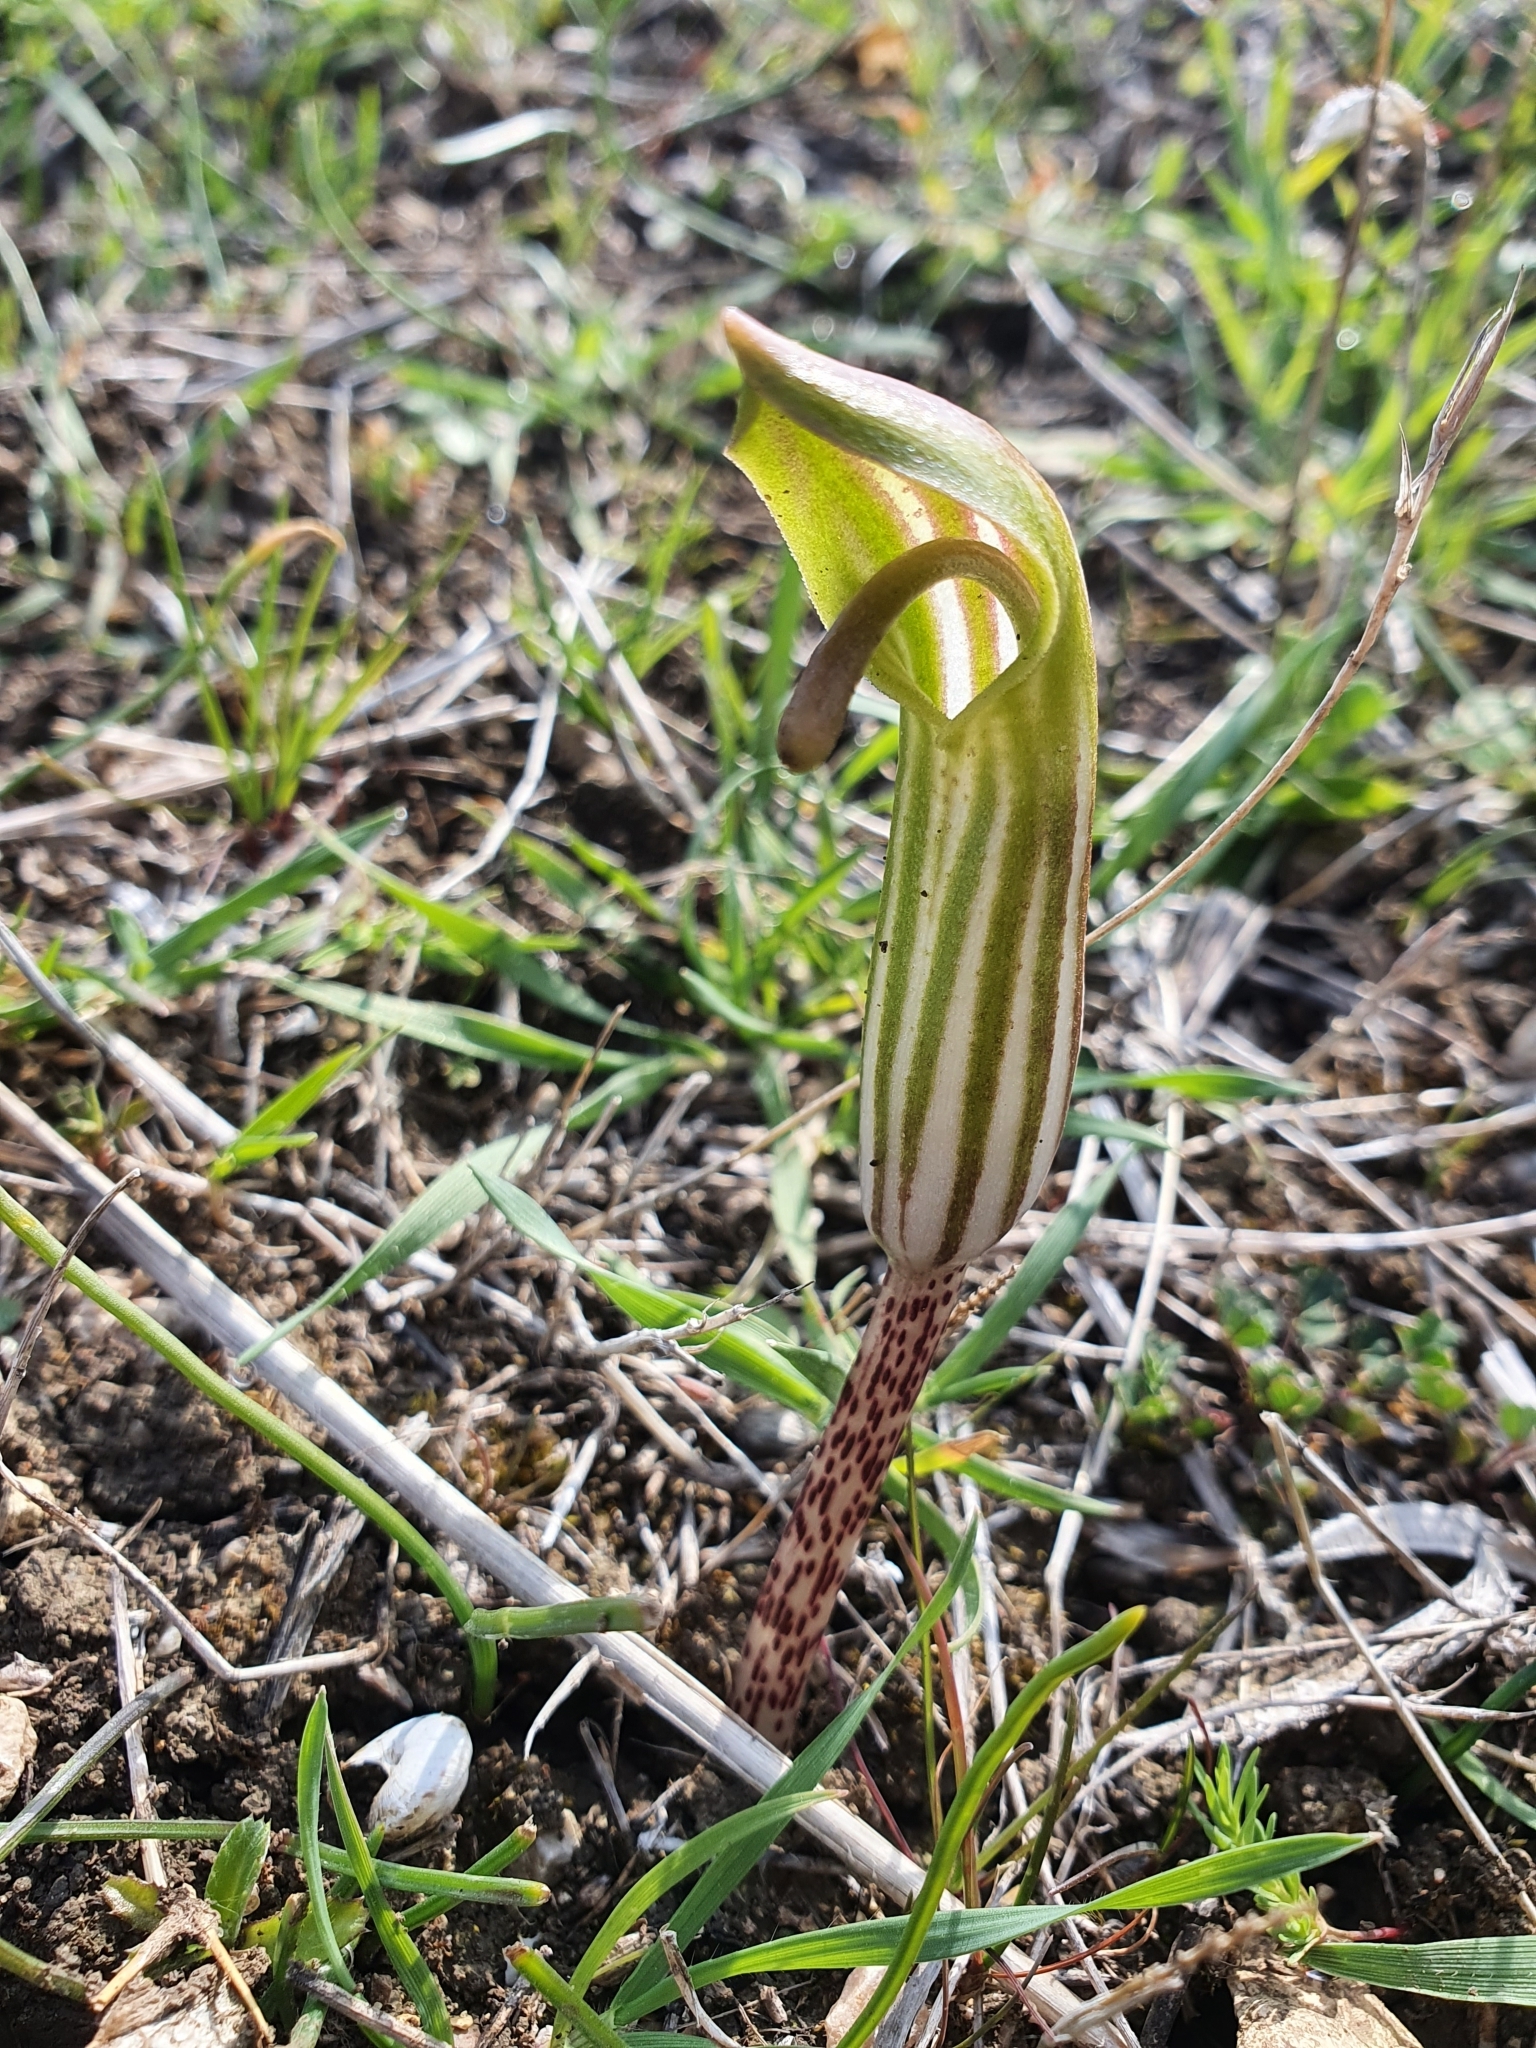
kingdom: Plantae
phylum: Tracheophyta
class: Liliopsida
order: Alismatales
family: Araceae
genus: Arisarum
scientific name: Arisarum vulgare
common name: Common arisarum
